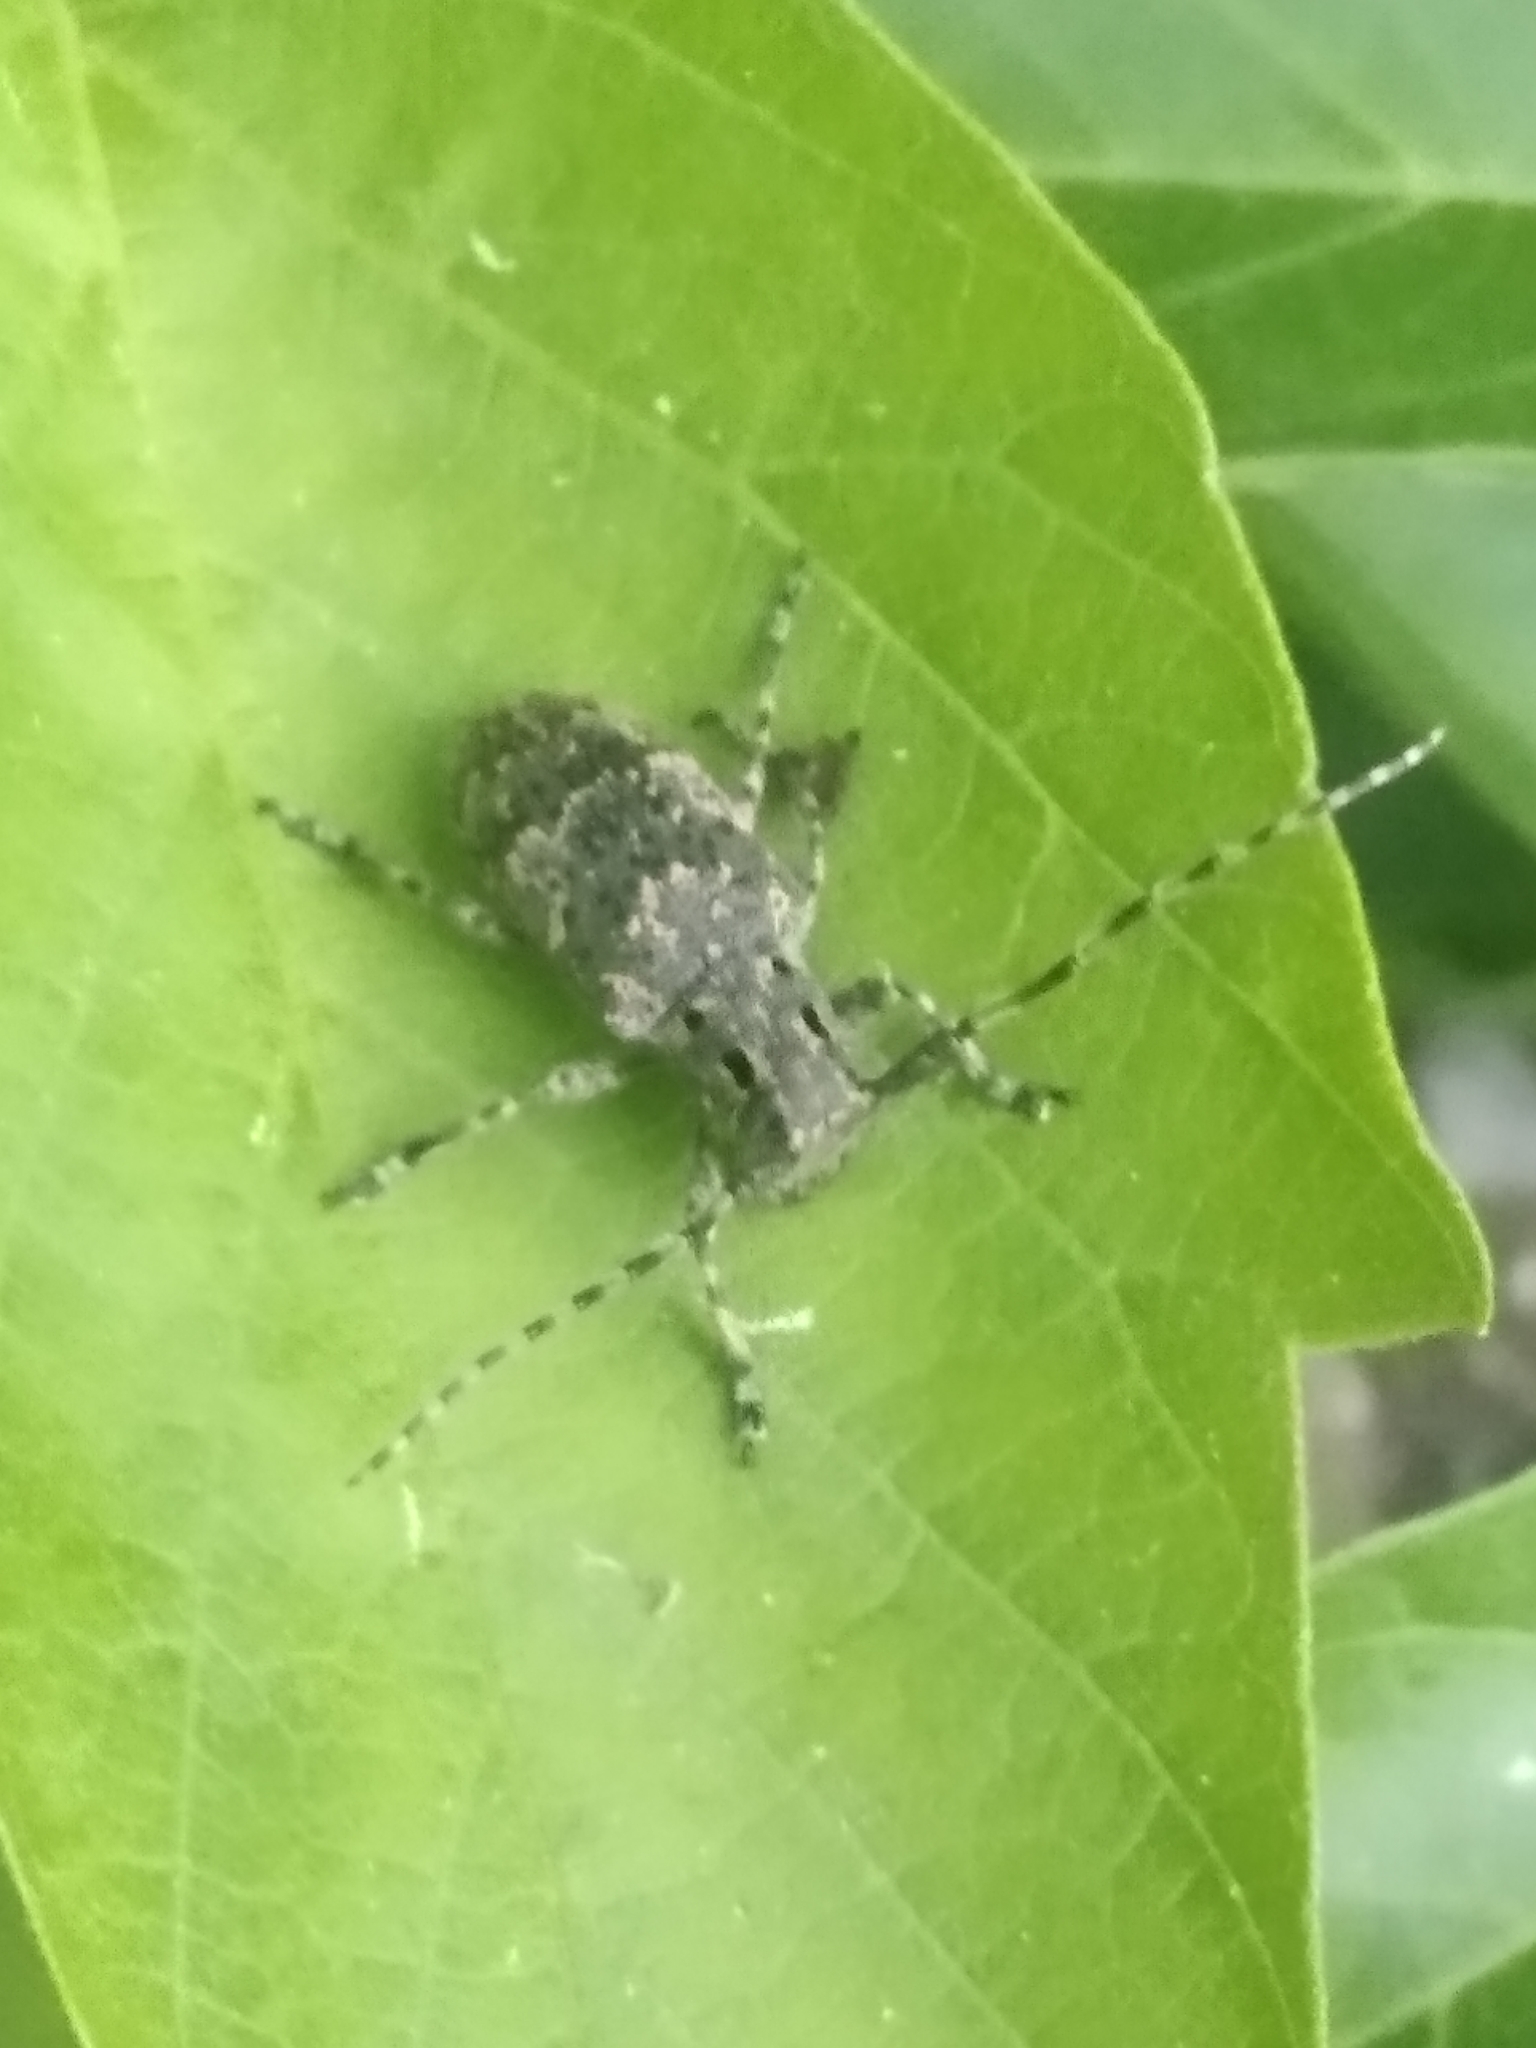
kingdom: Animalia
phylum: Arthropoda
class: Insecta
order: Coleoptera
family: Cerambycidae
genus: Mesosa
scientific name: Mesosa myops
